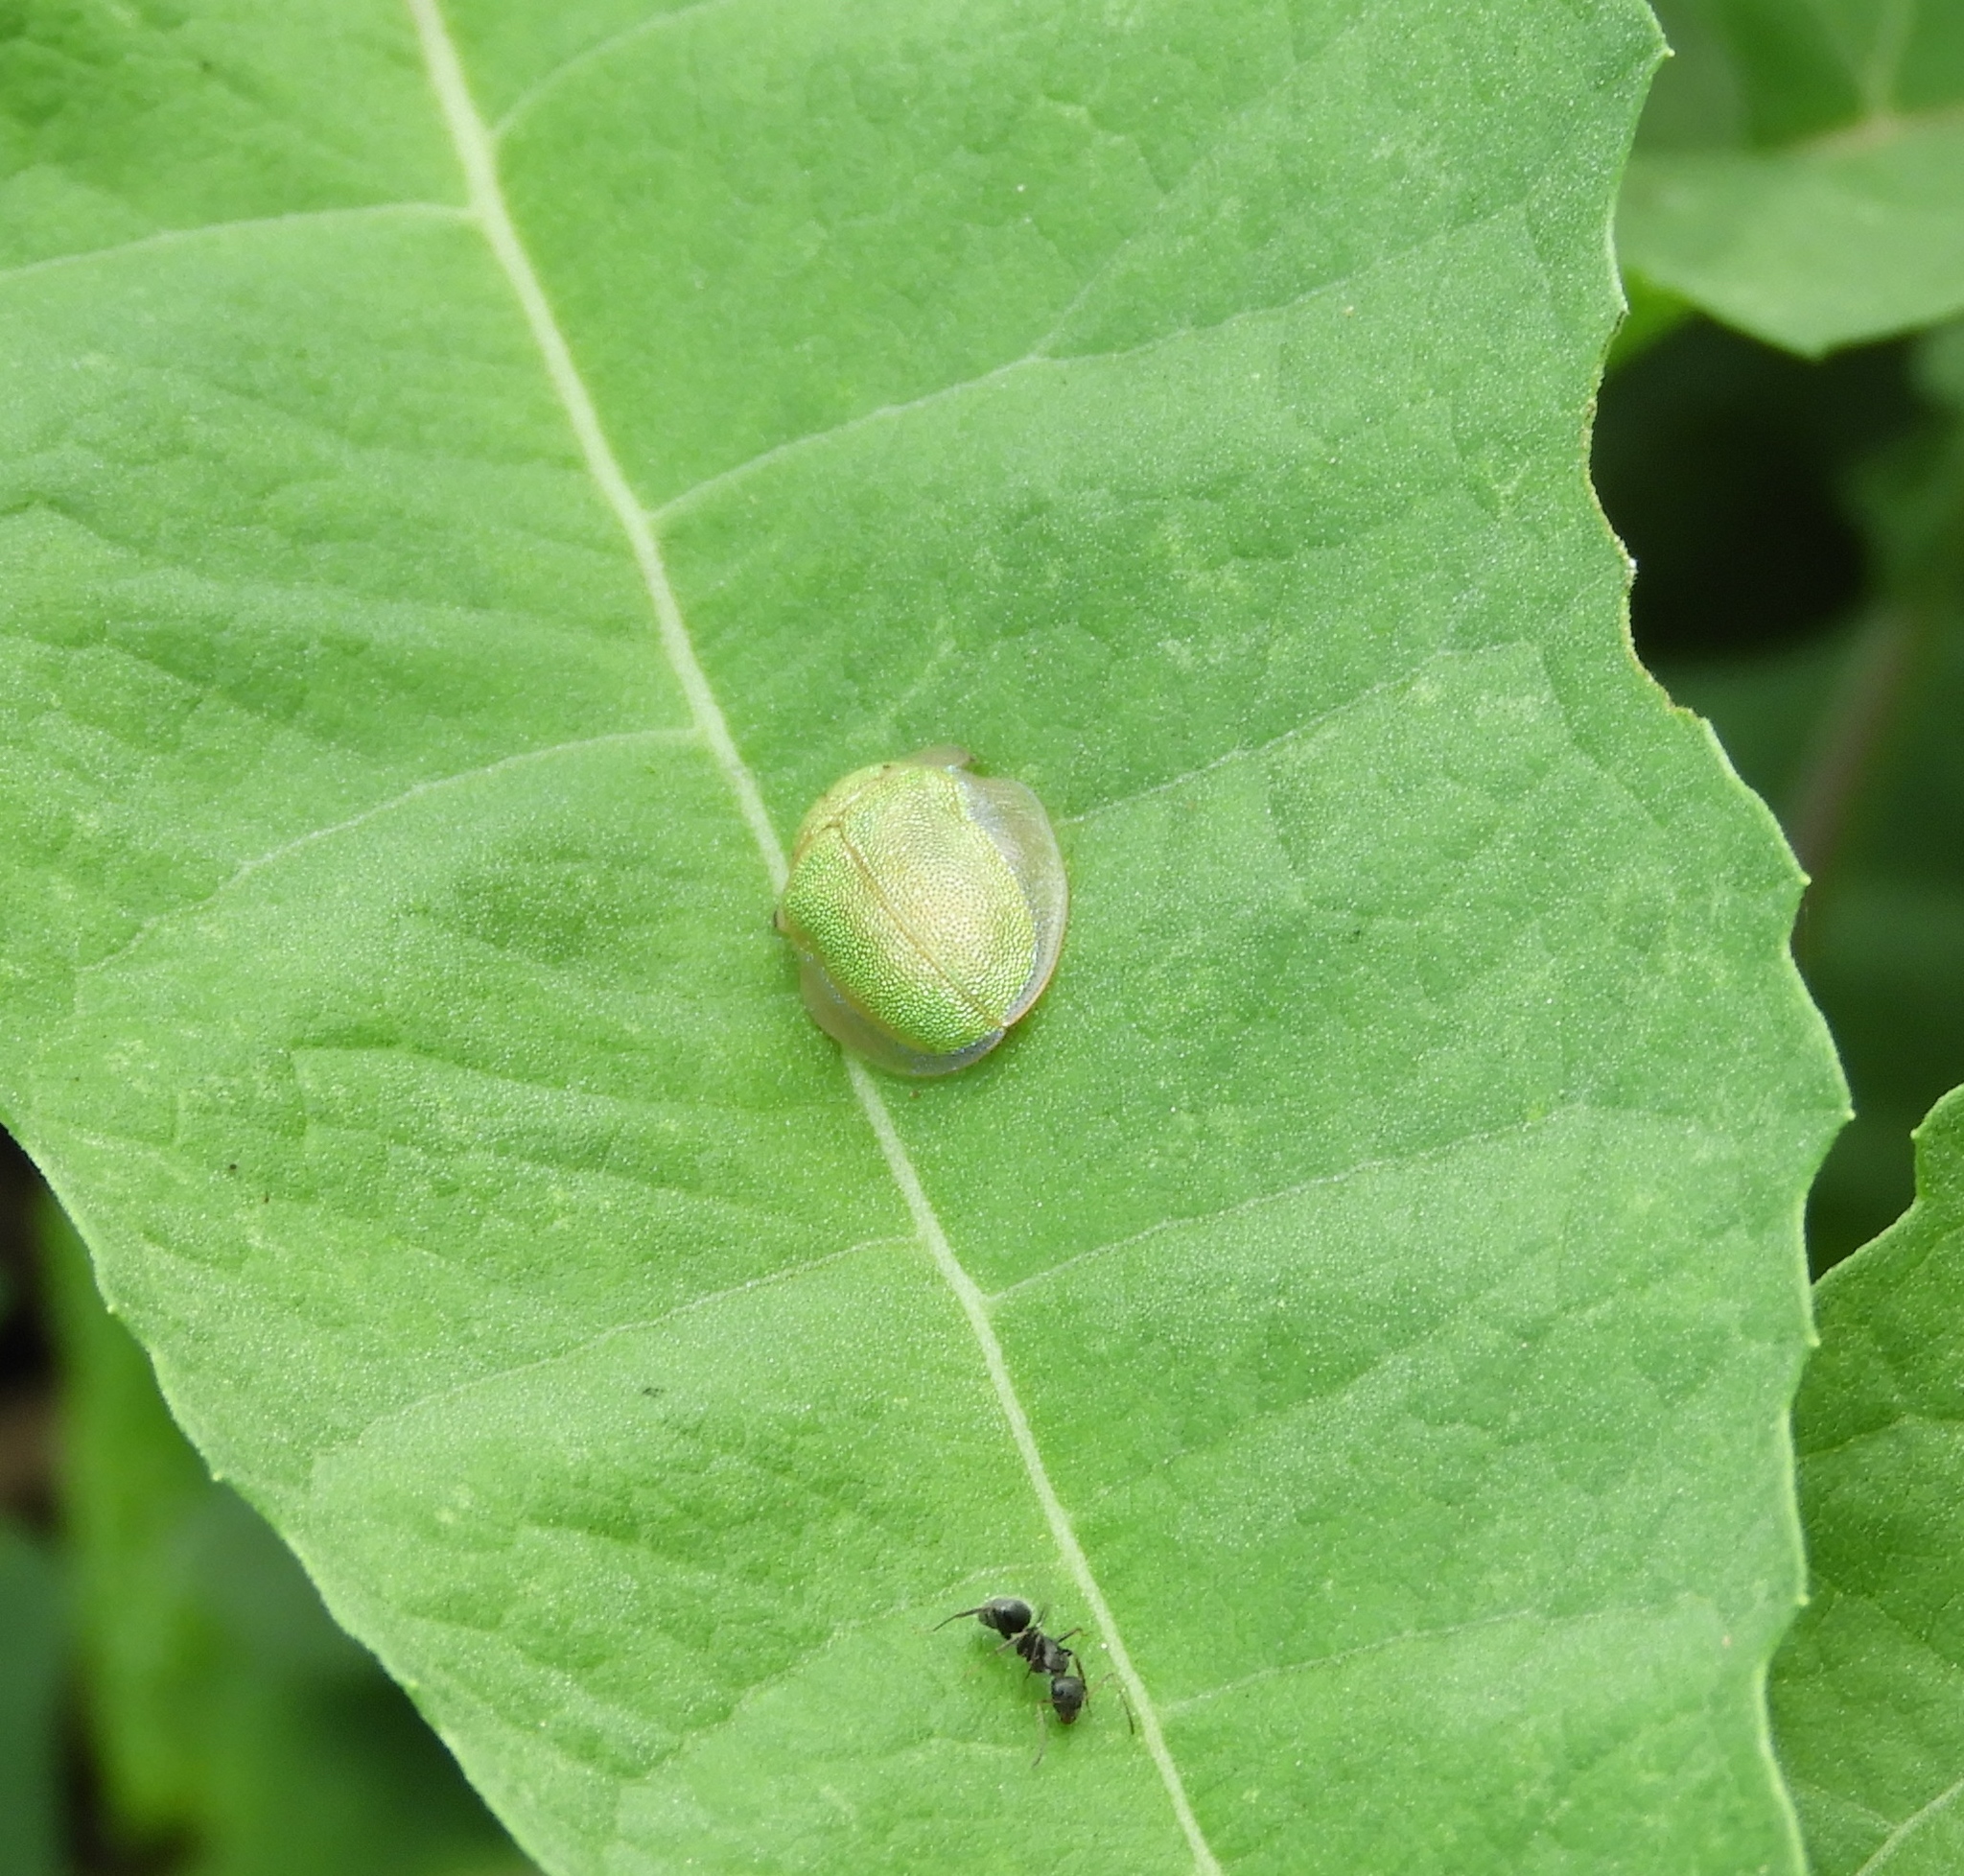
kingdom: Animalia
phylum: Arthropoda
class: Insecta
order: Coleoptera
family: Chrysomelidae
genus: Physonota
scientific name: Physonota arizonae
